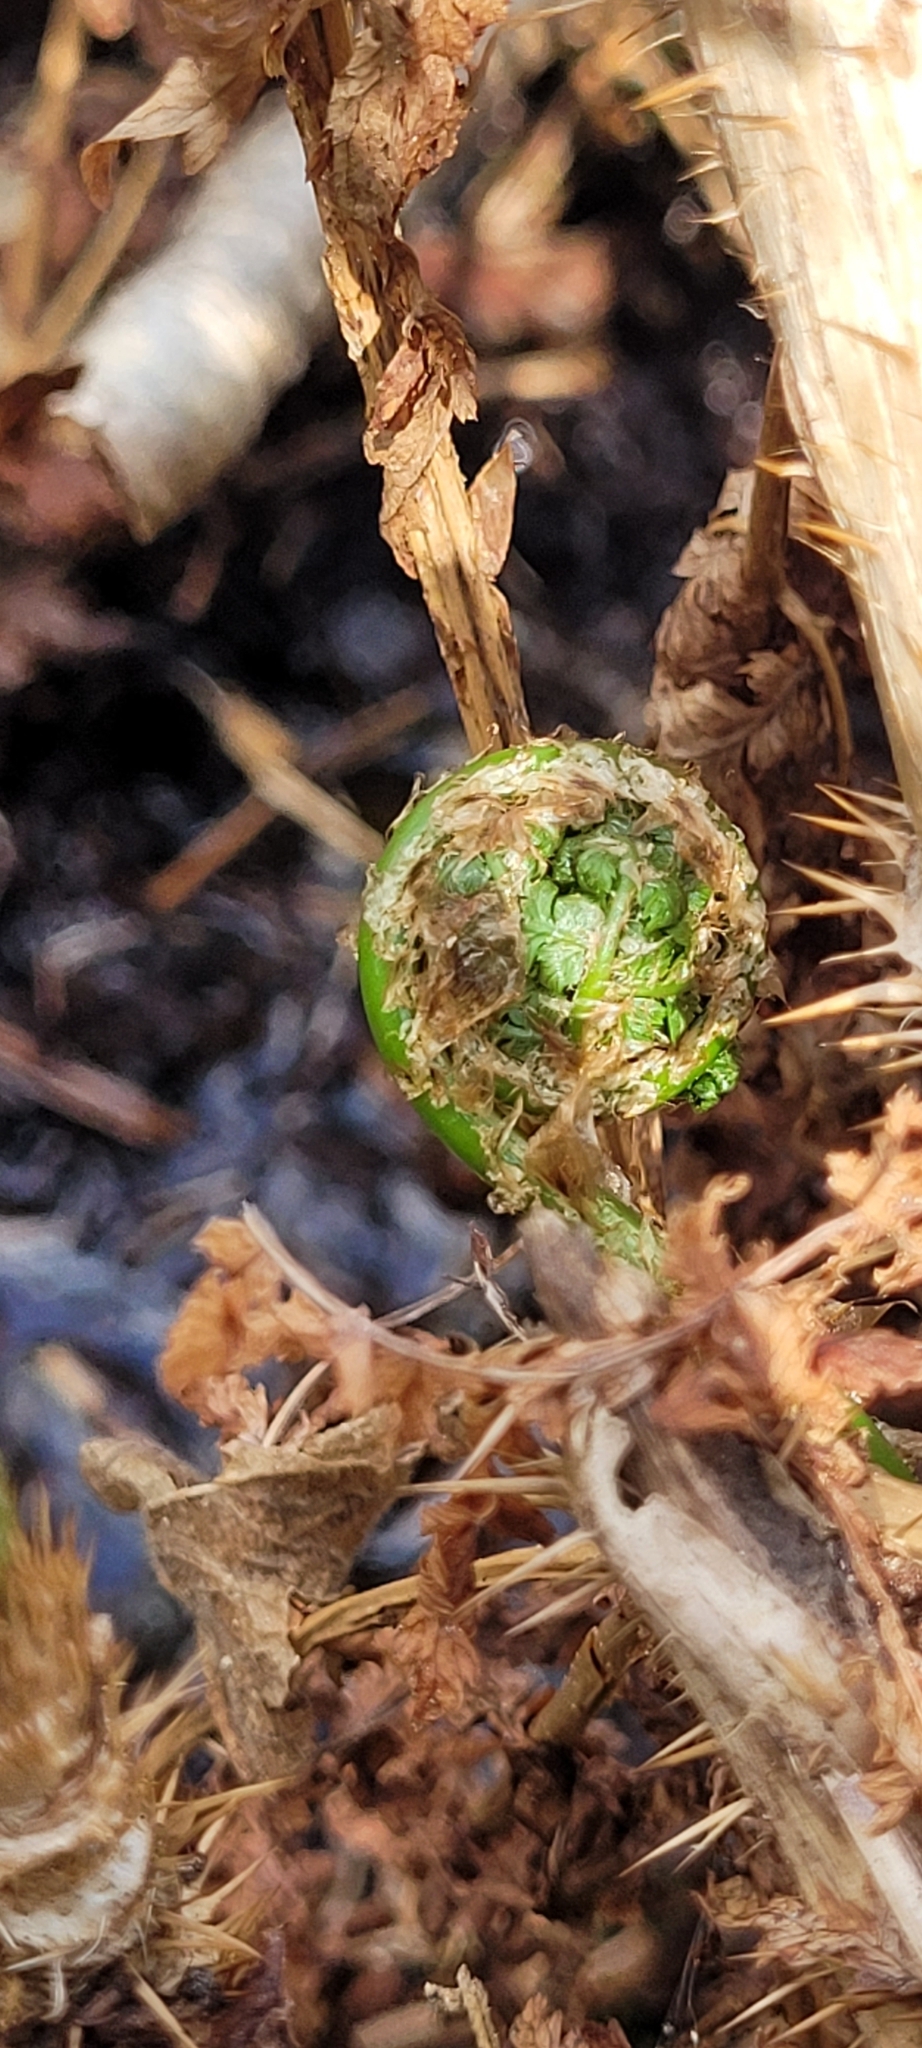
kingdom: Plantae
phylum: Tracheophyta
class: Polypodiopsida
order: Polypodiales
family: Dryopteridaceae
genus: Dryopteris
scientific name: Dryopteris expansa
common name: Northern buckler fern
